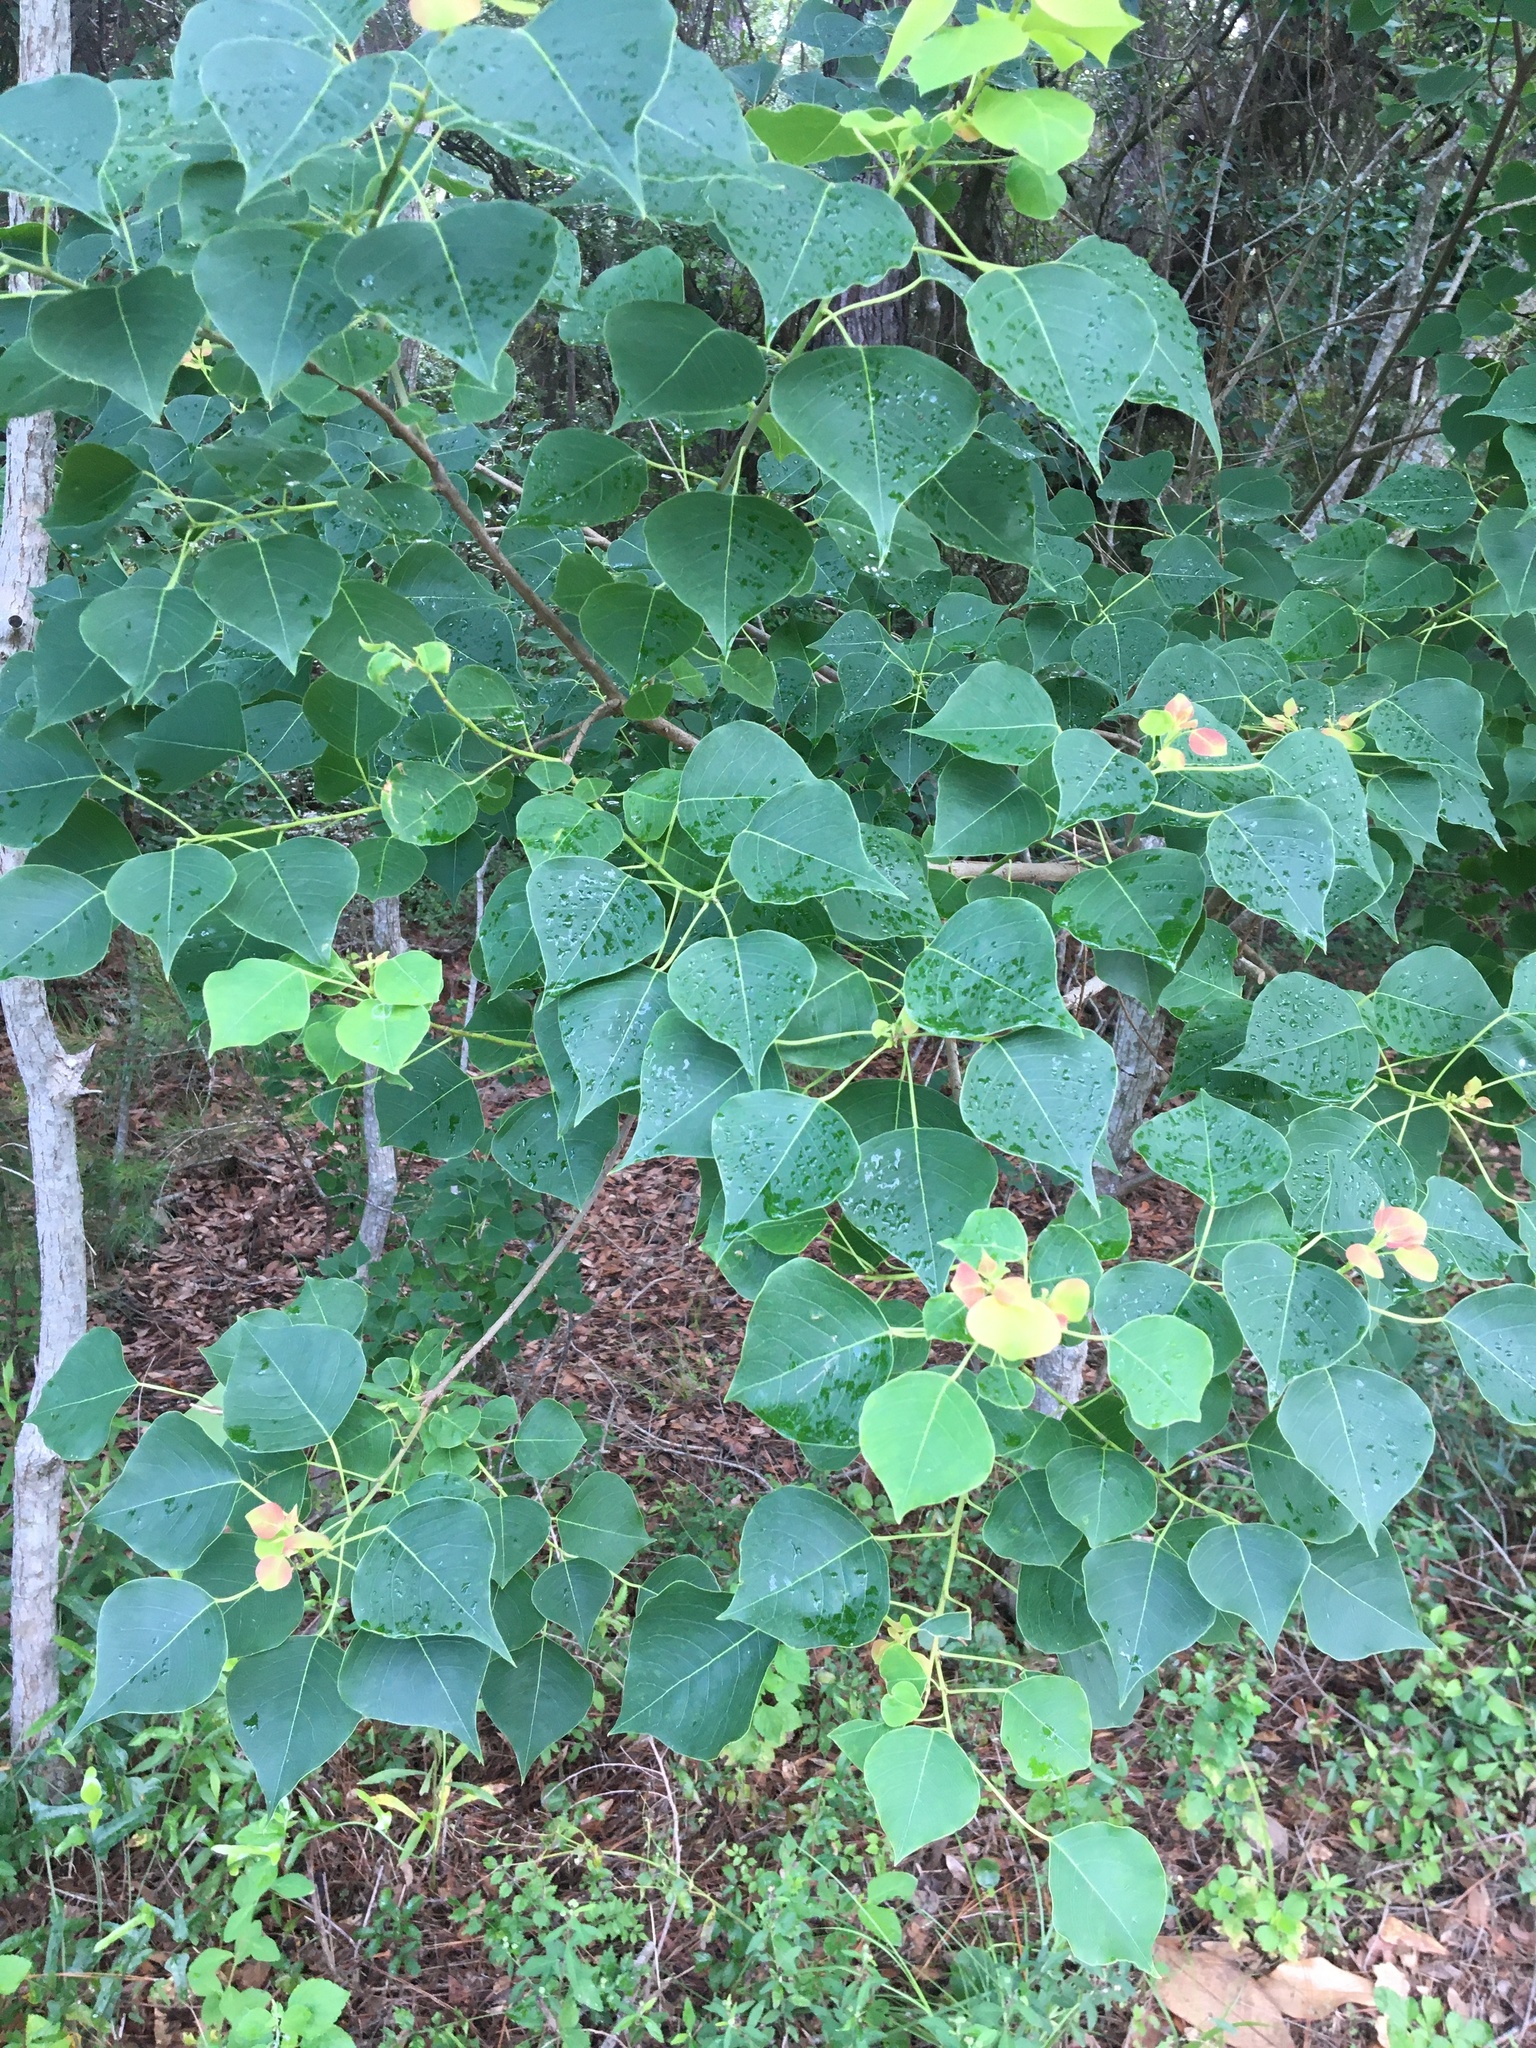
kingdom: Plantae
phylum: Tracheophyta
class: Magnoliopsida
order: Malpighiales
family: Euphorbiaceae
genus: Triadica
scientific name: Triadica sebifera
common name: Chinese tallow
